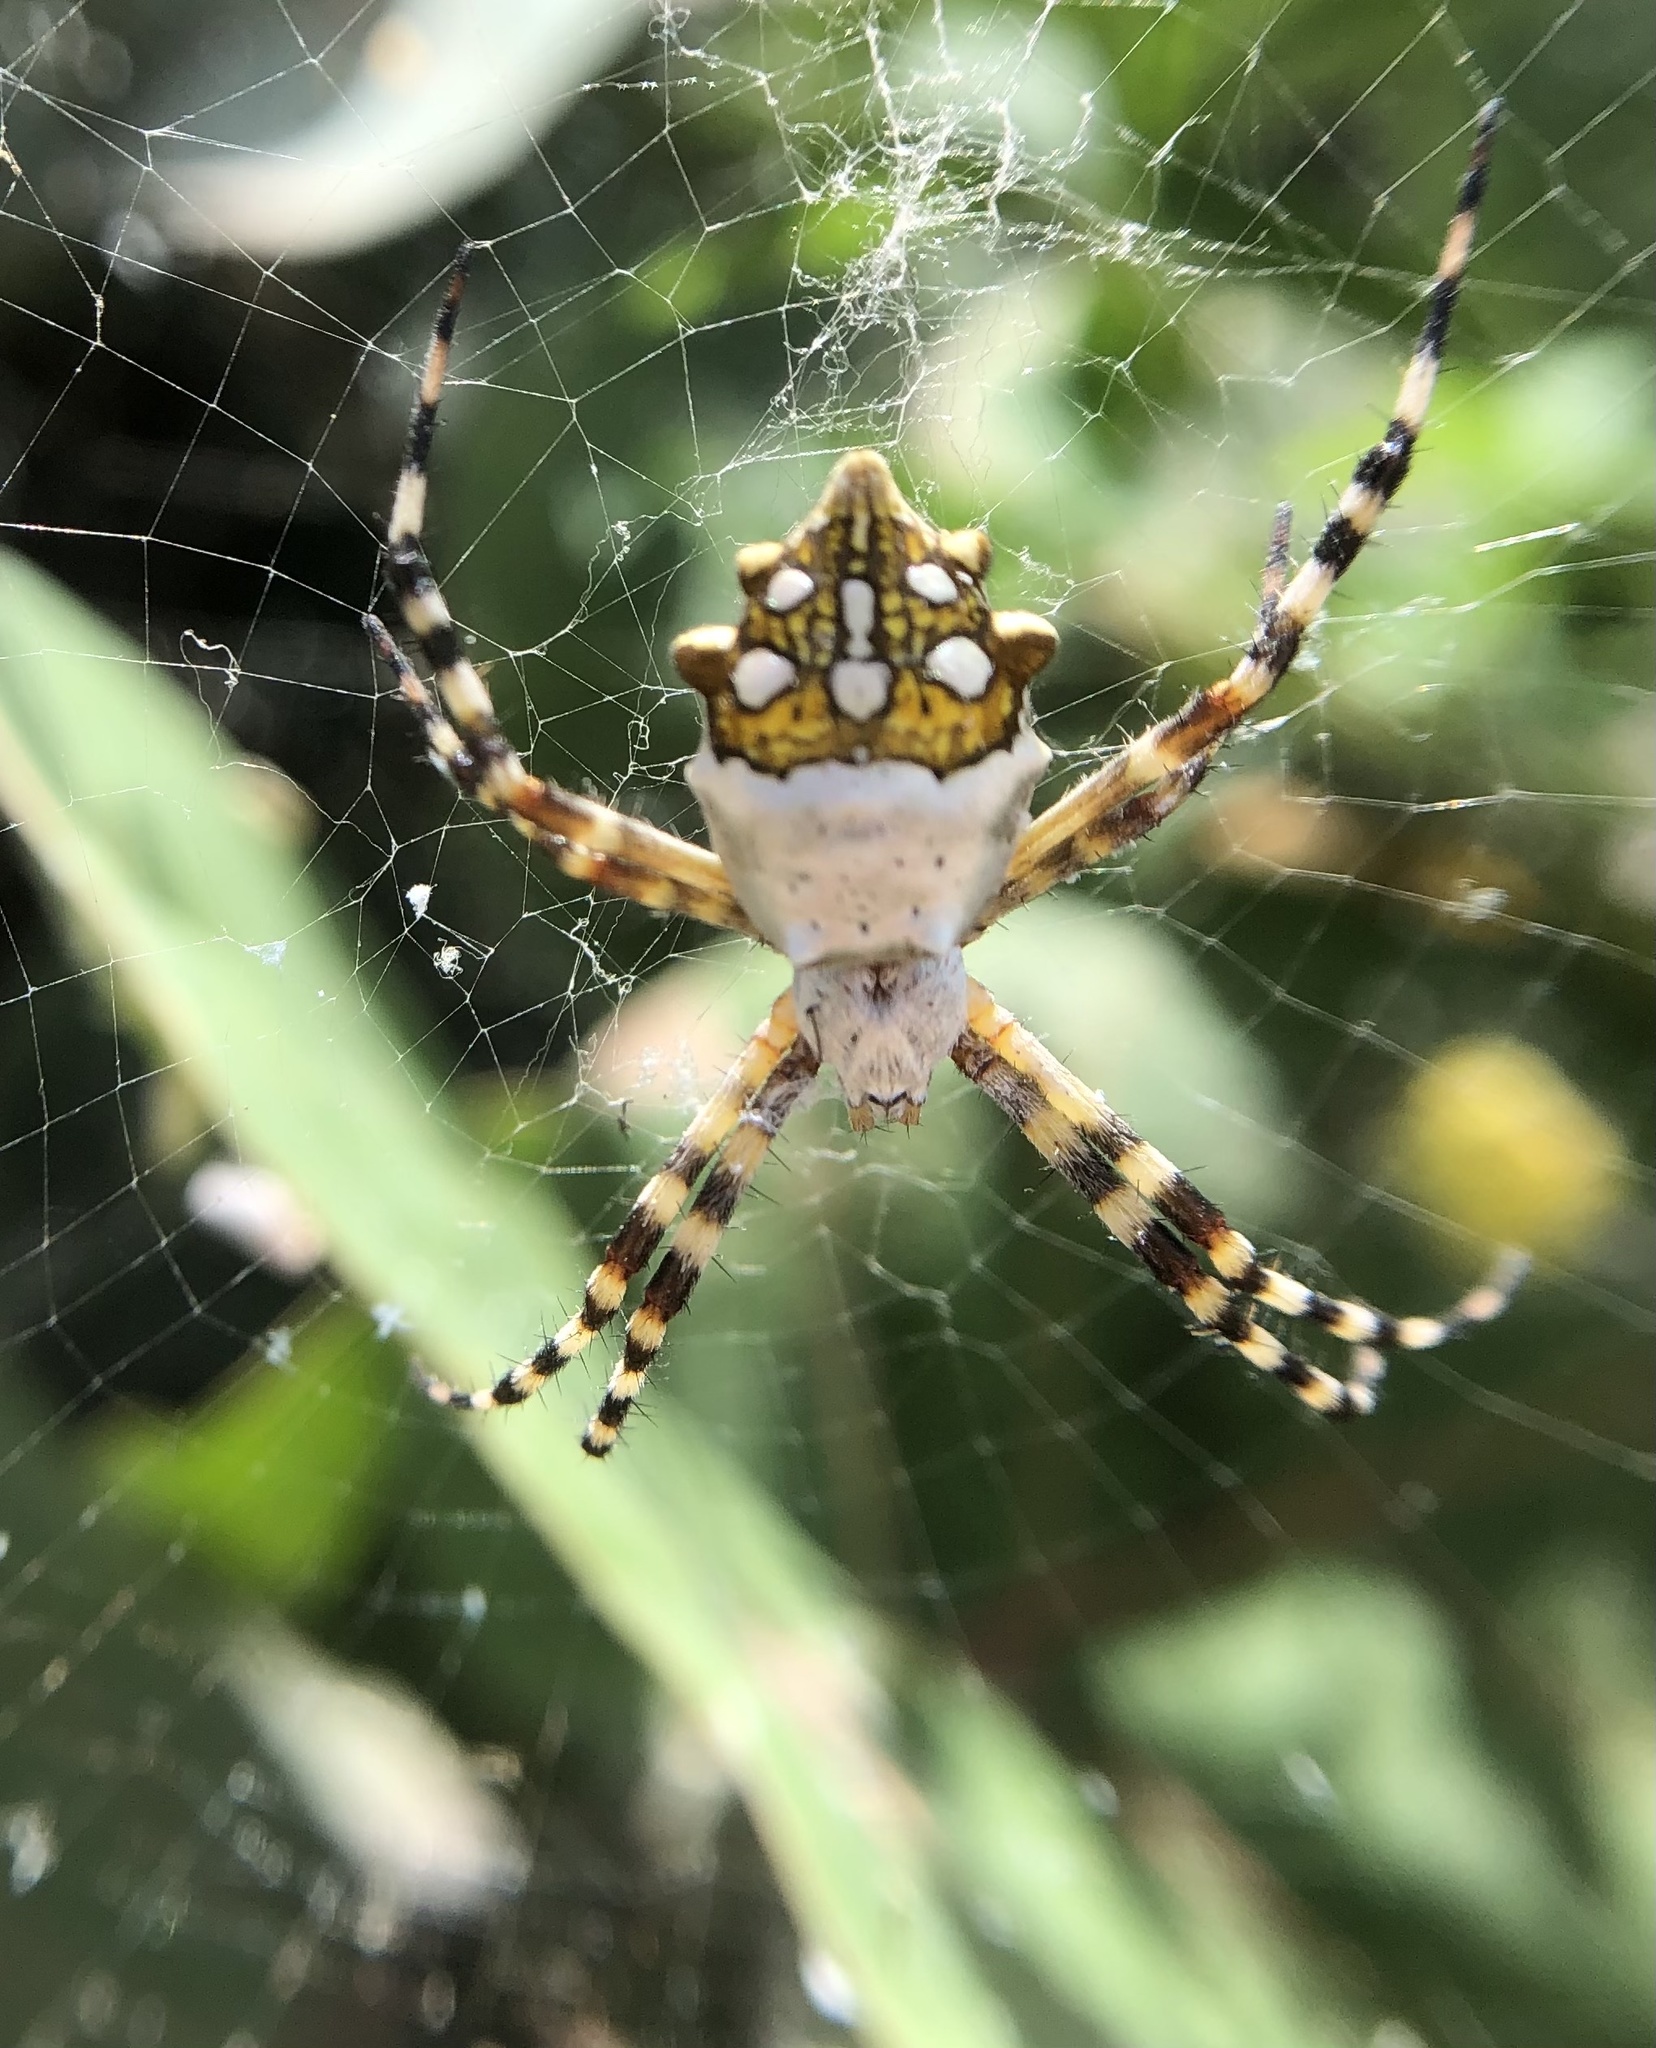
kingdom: Animalia
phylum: Arthropoda
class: Arachnida
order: Araneae
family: Araneidae
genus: Argiope
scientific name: Argiope argentata
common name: Orb weavers
